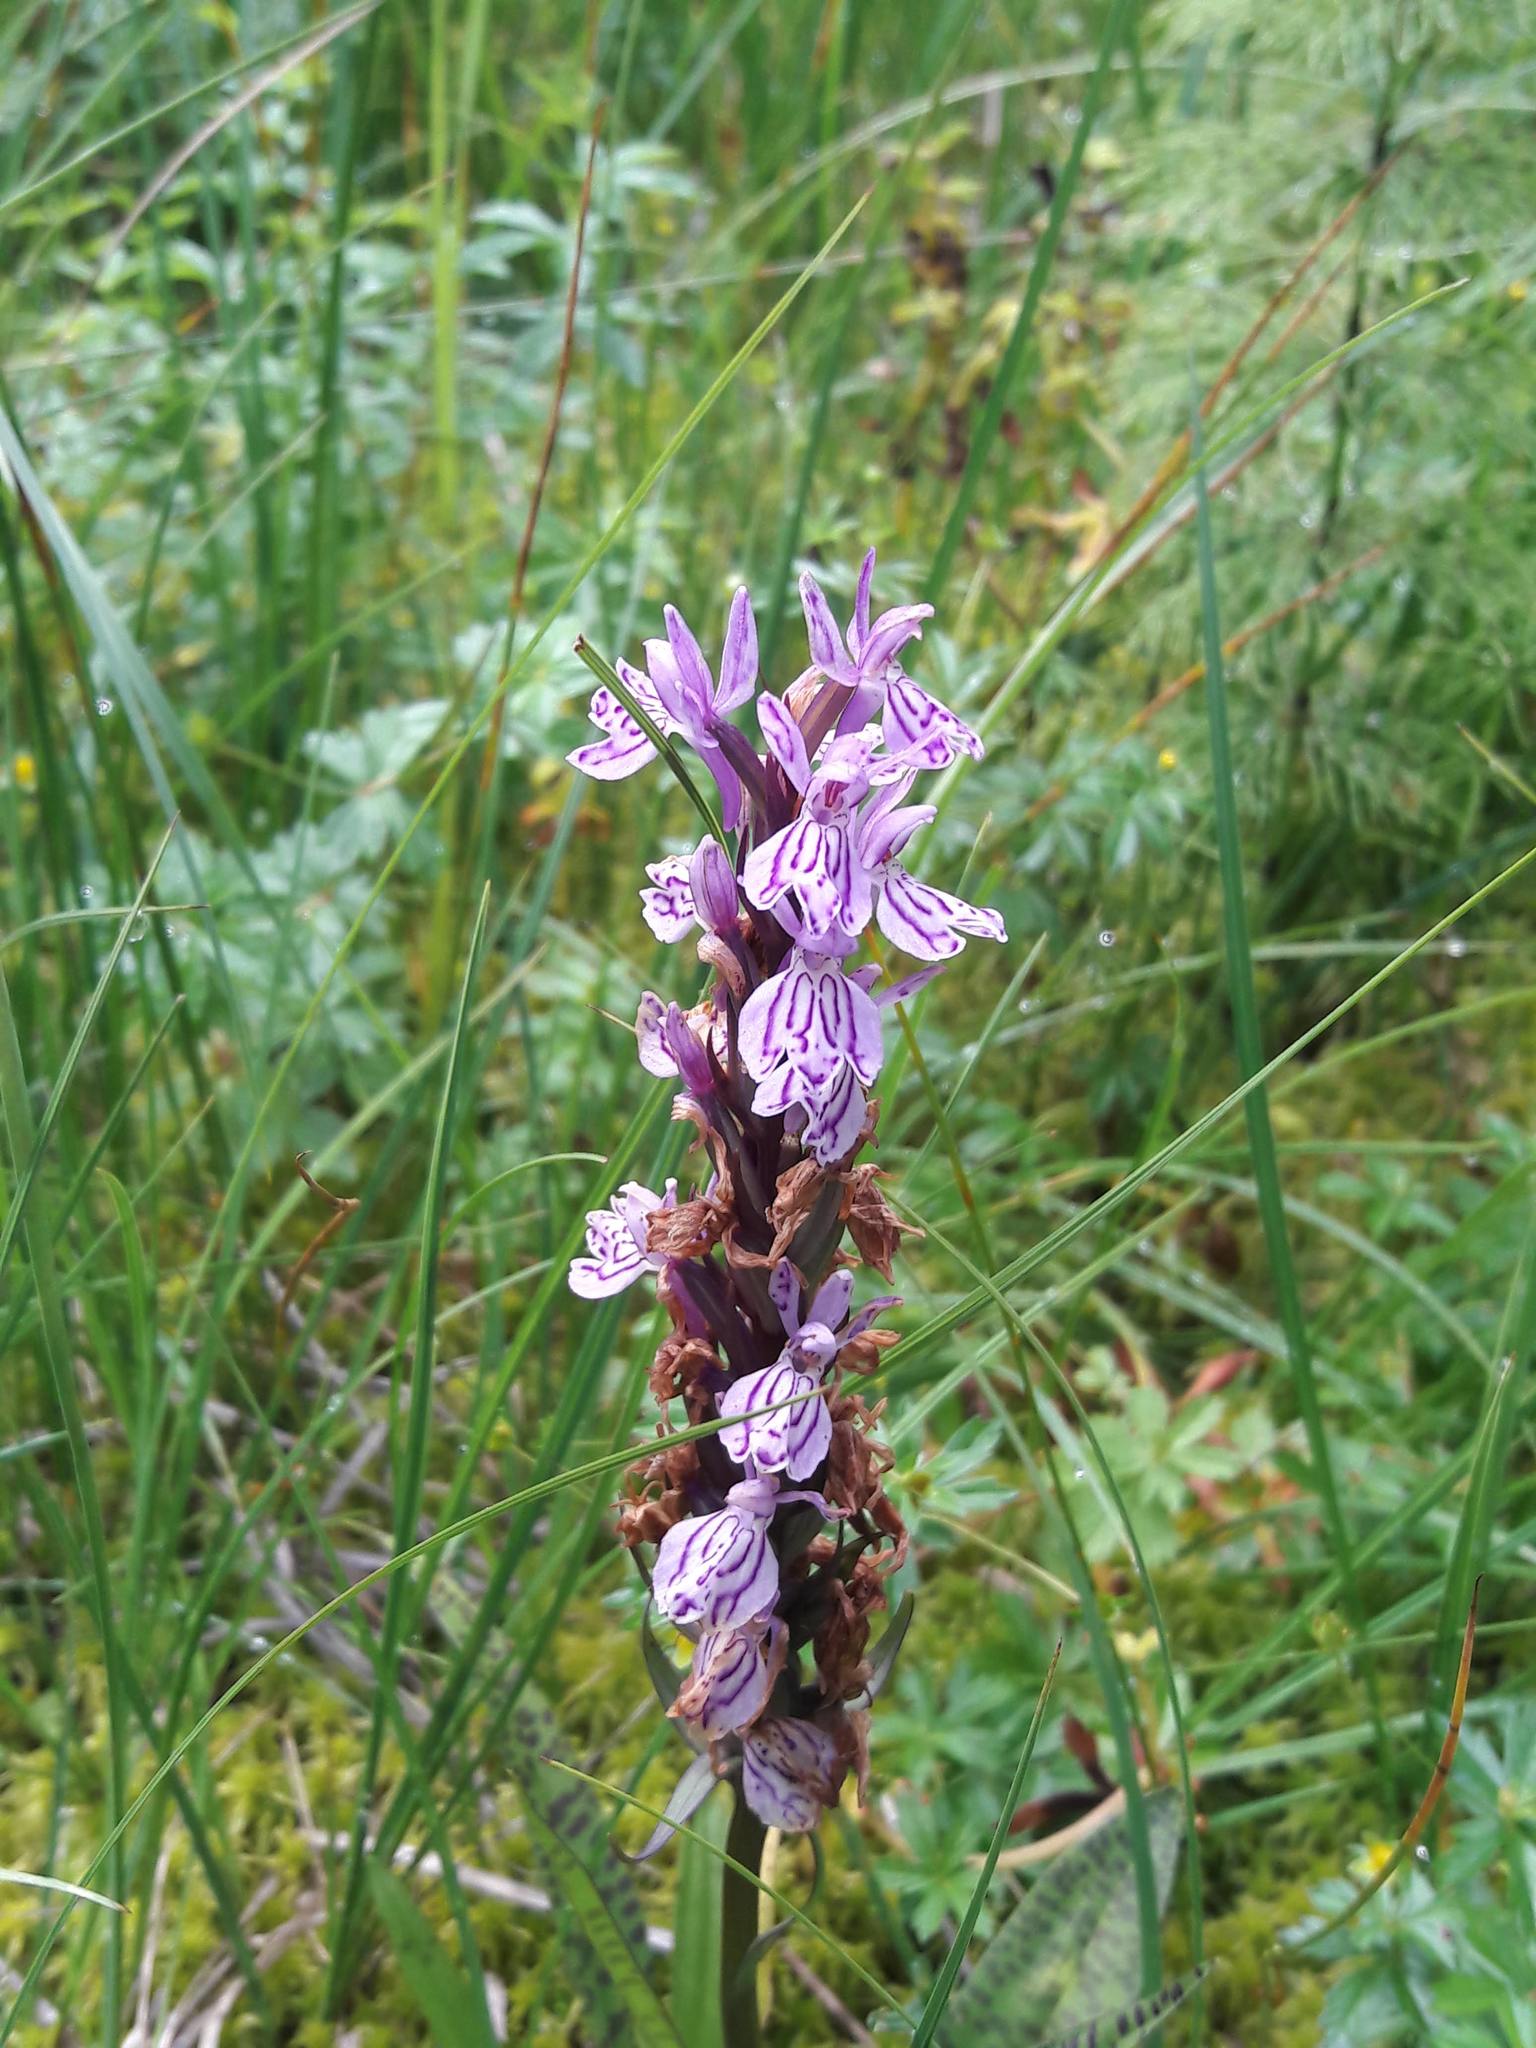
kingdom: Plantae
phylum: Tracheophyta
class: Liliopsida
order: Asparagales
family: Orchidaceae
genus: Dactylorhiza
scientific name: Dactylorhiza maculata
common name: Heath spotted-orchid
